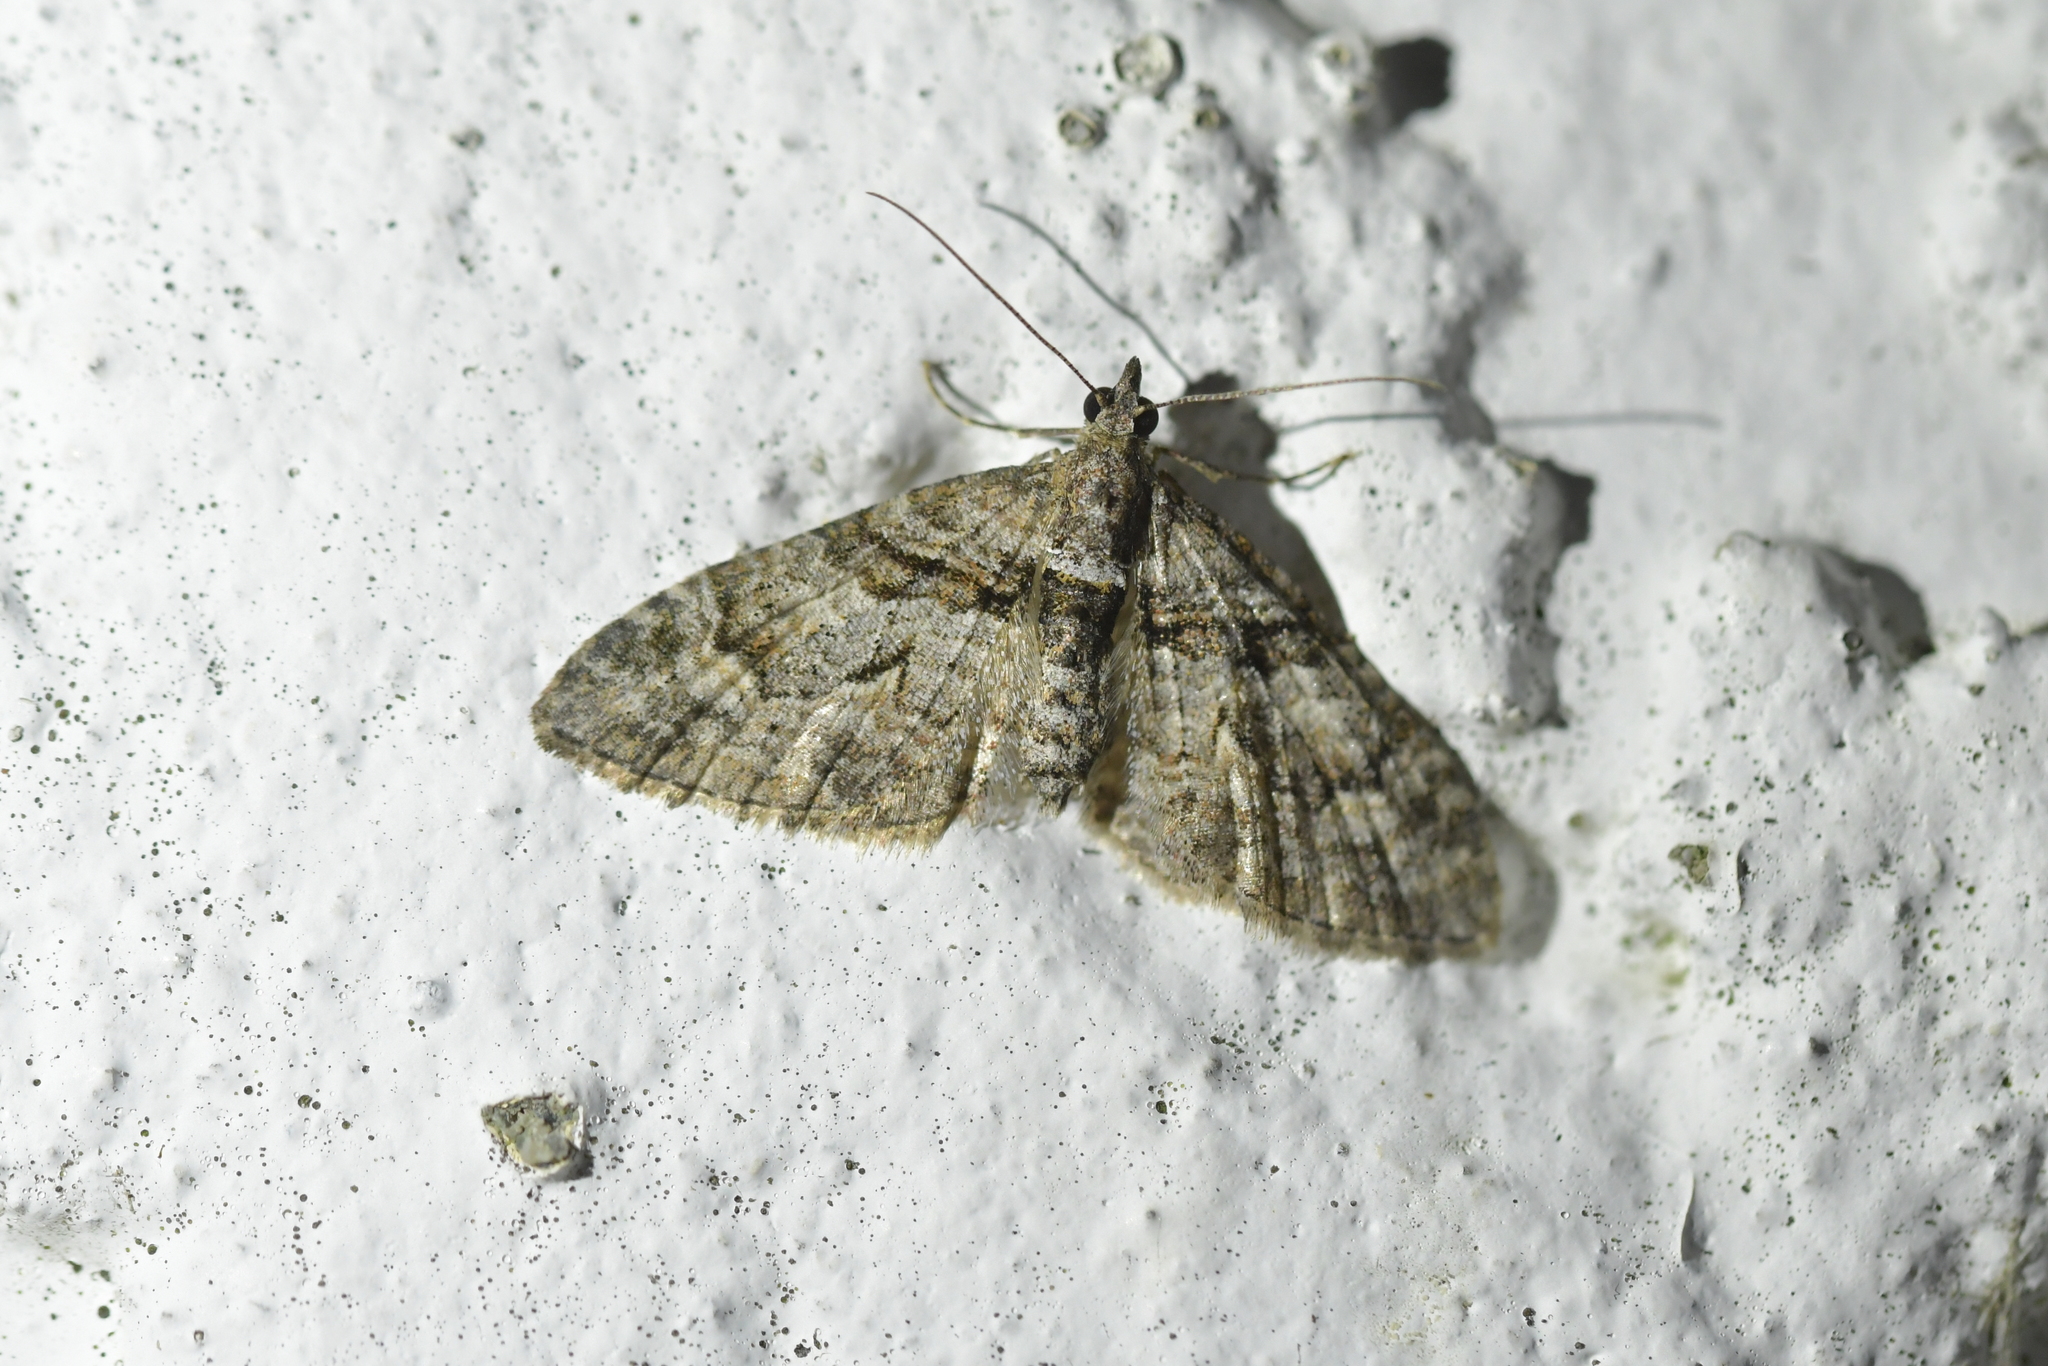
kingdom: Animalia
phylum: Arthropoda
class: Insecta
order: Lepidoptera
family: Geometridae
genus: Phrissogonus
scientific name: Phrissogonus laticostata
